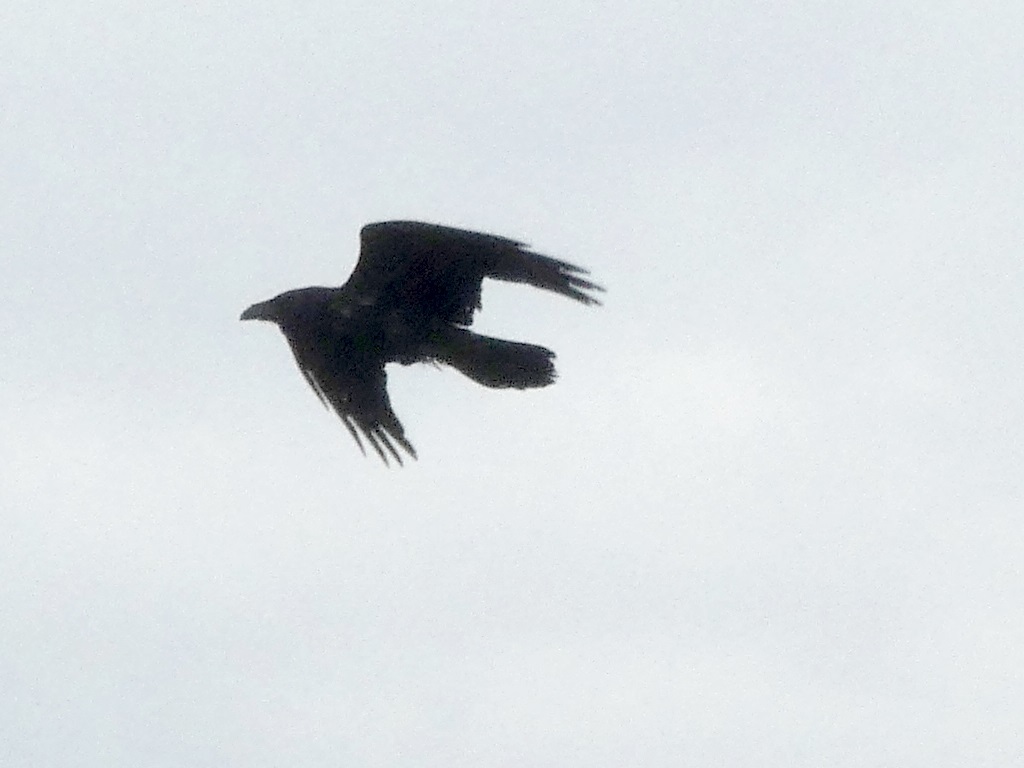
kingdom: Animalia
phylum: Chordata
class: Aves
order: Passeriformes
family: Corvidae
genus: Corvus
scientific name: Corvus corax
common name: Common raven
